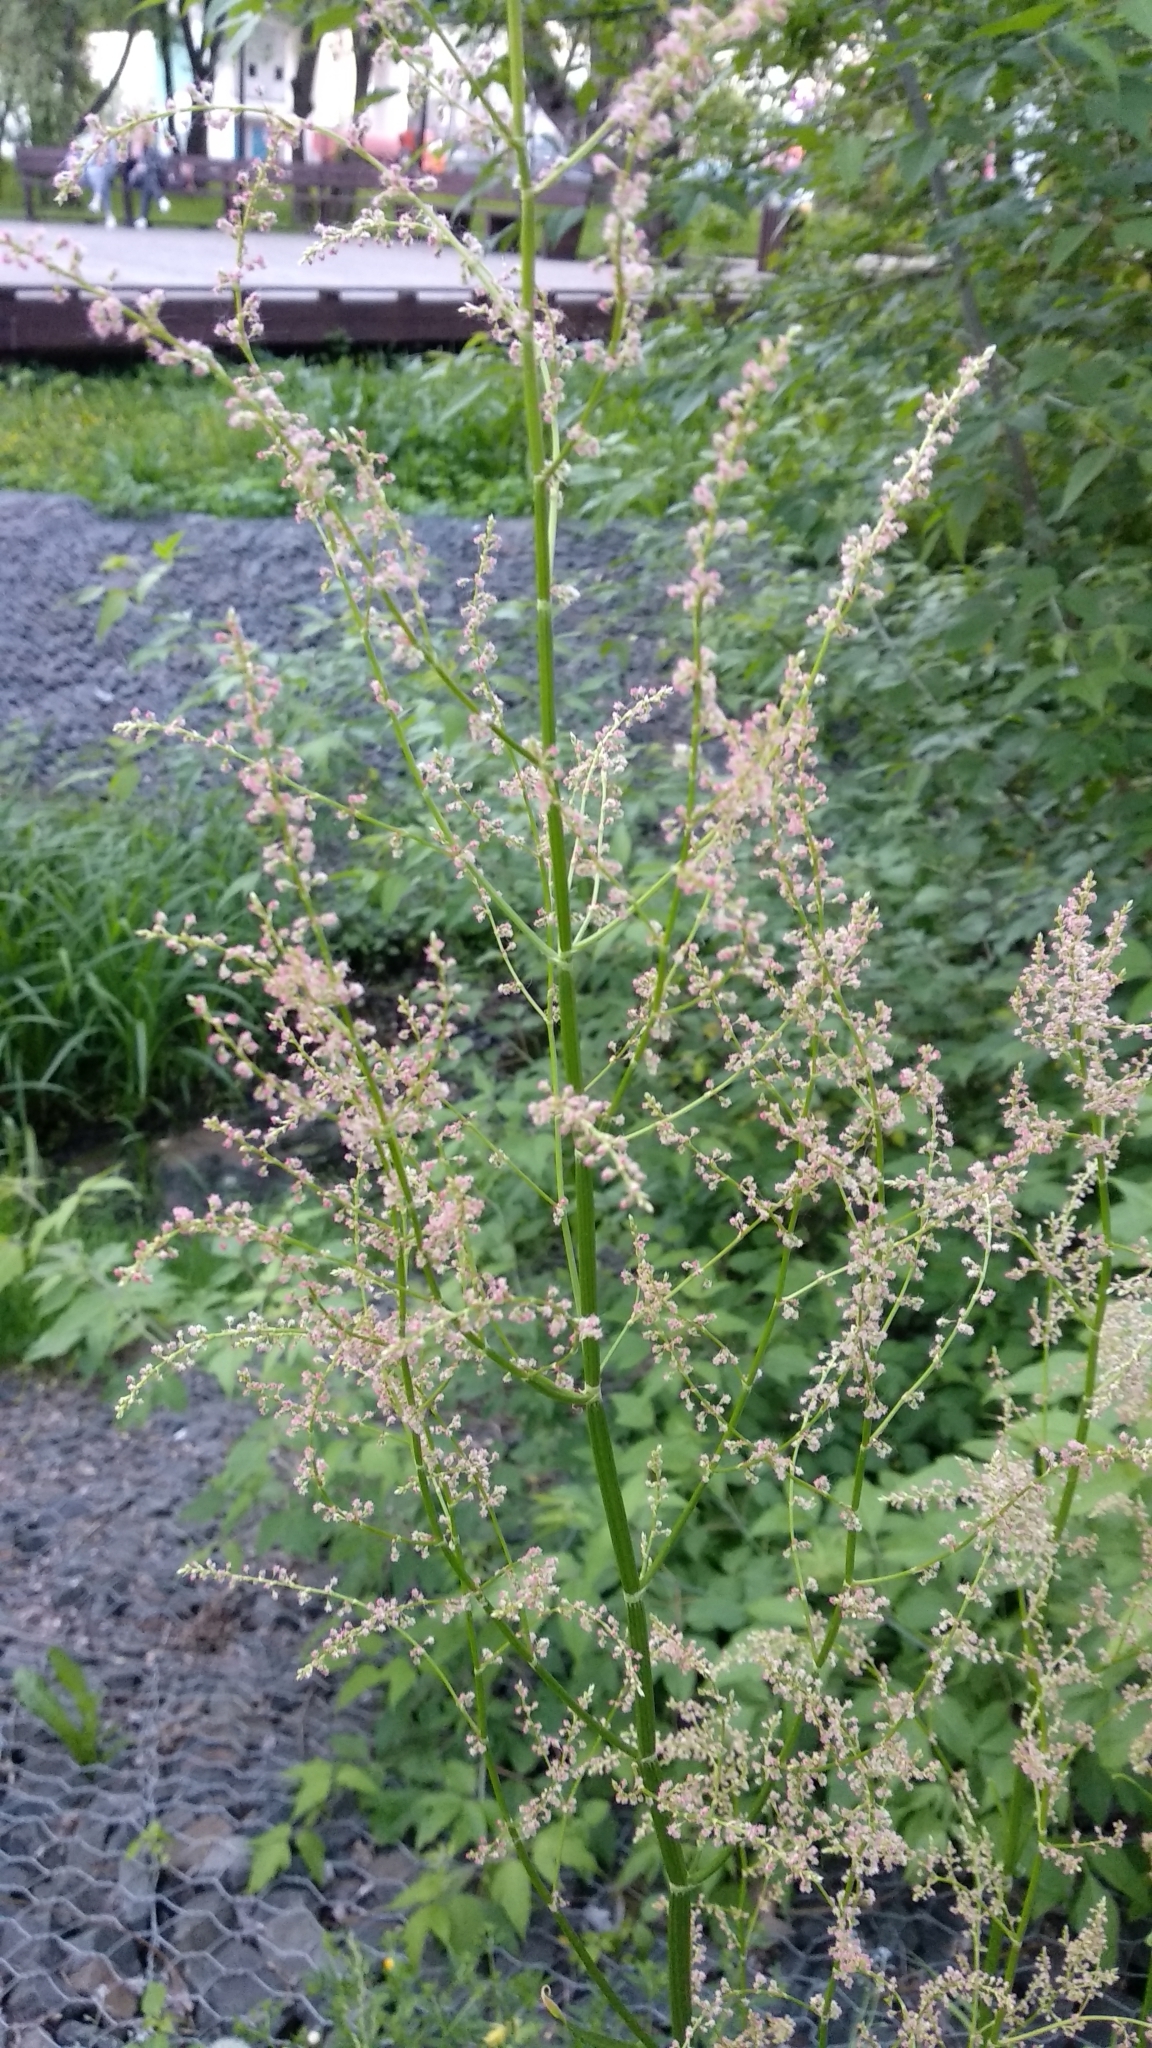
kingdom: Plantae
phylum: Tracheophyta
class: Magnoliopsida
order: Caryophyllales
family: Polygonaceae
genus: Rumex
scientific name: Rumex thyrsiflorus
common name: Garden sorrel
